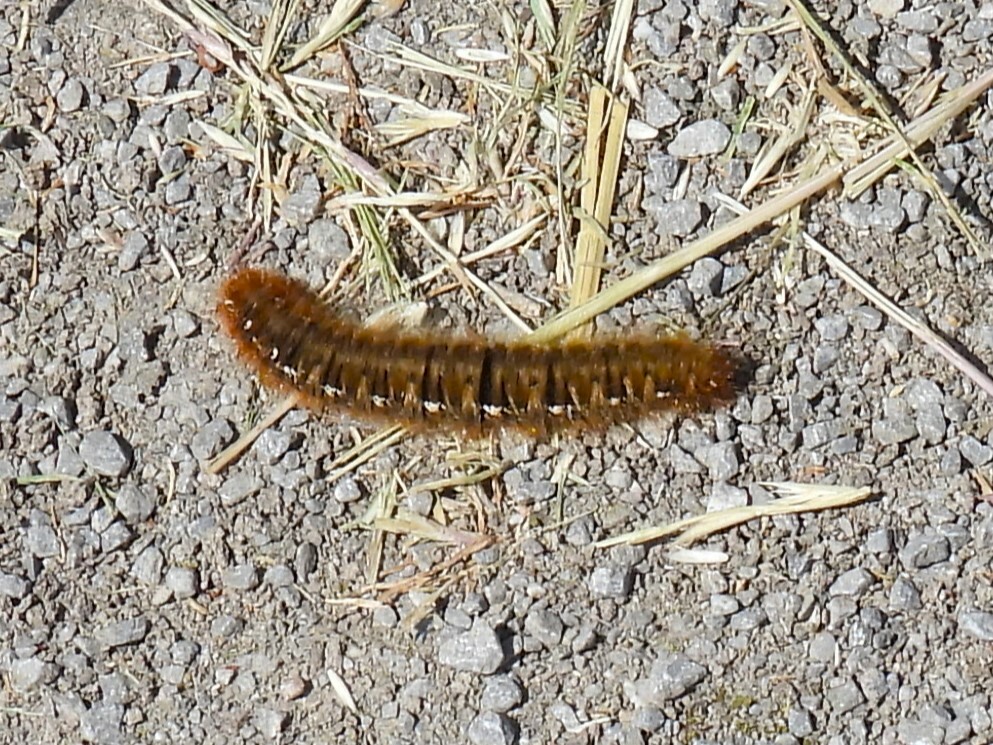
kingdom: Animalia
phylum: Arthropoda
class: Insecta
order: Lepidoptera
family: Lasiocampidae
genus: Lasiocampa
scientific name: Lasiocampa quercus
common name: Oak eggar
